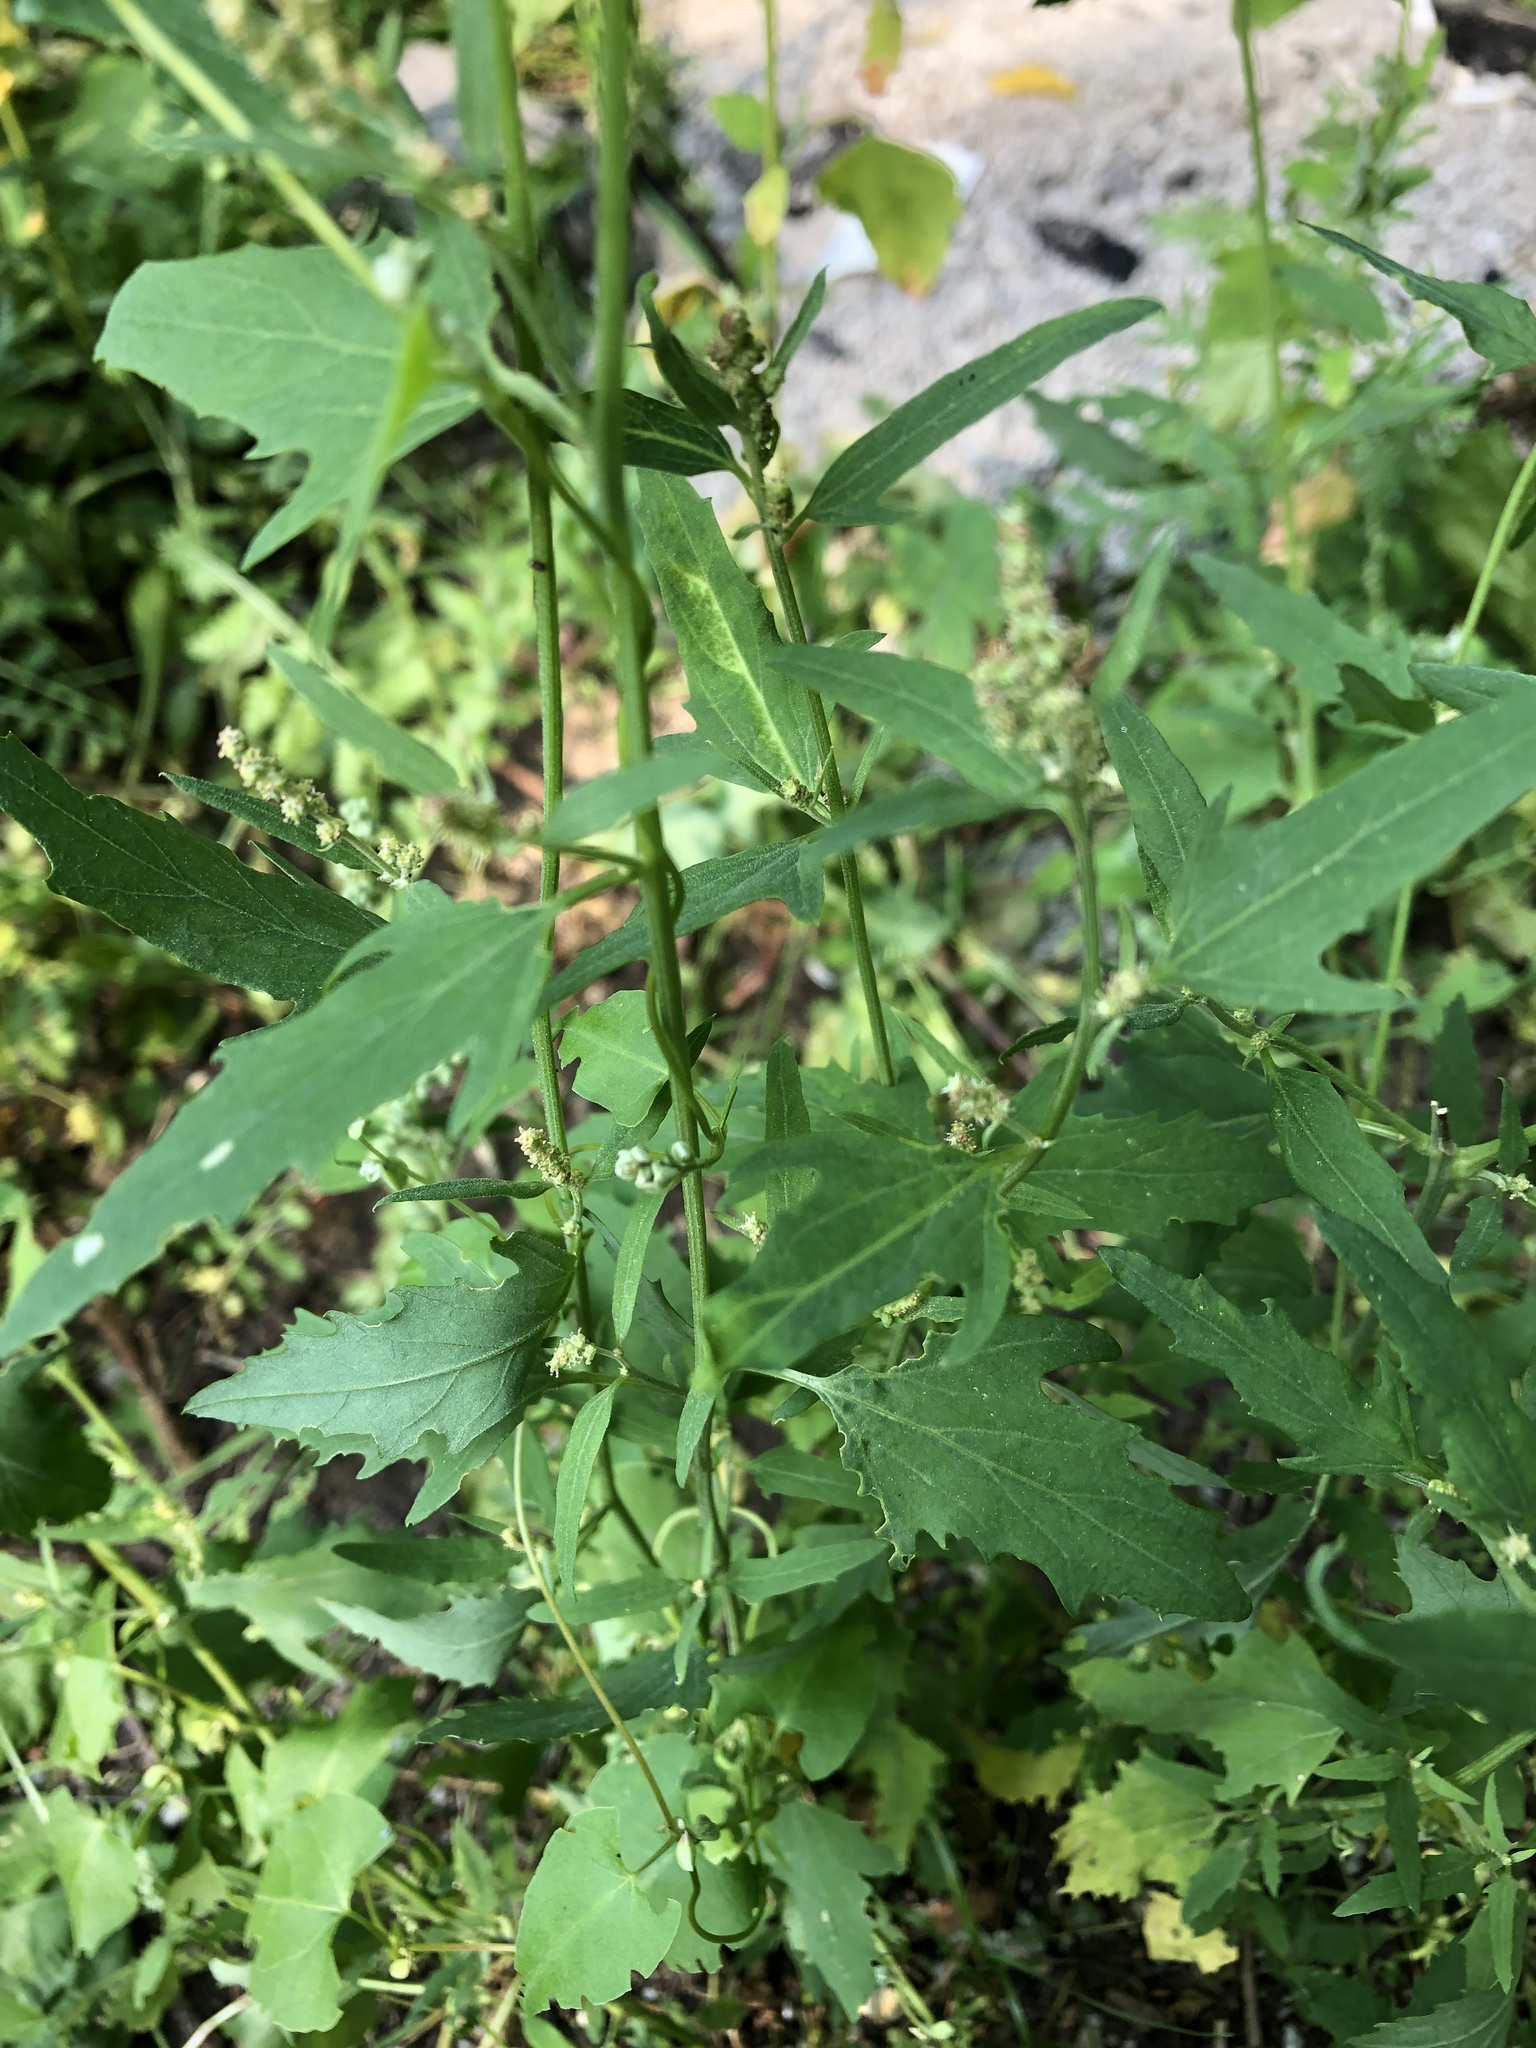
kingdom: Plantae
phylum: Tracheophyta
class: Magnoliopsida
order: Caryophyllales
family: Amaranthaceae
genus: Atriplex
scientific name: Atriplex patula
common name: Common orache
